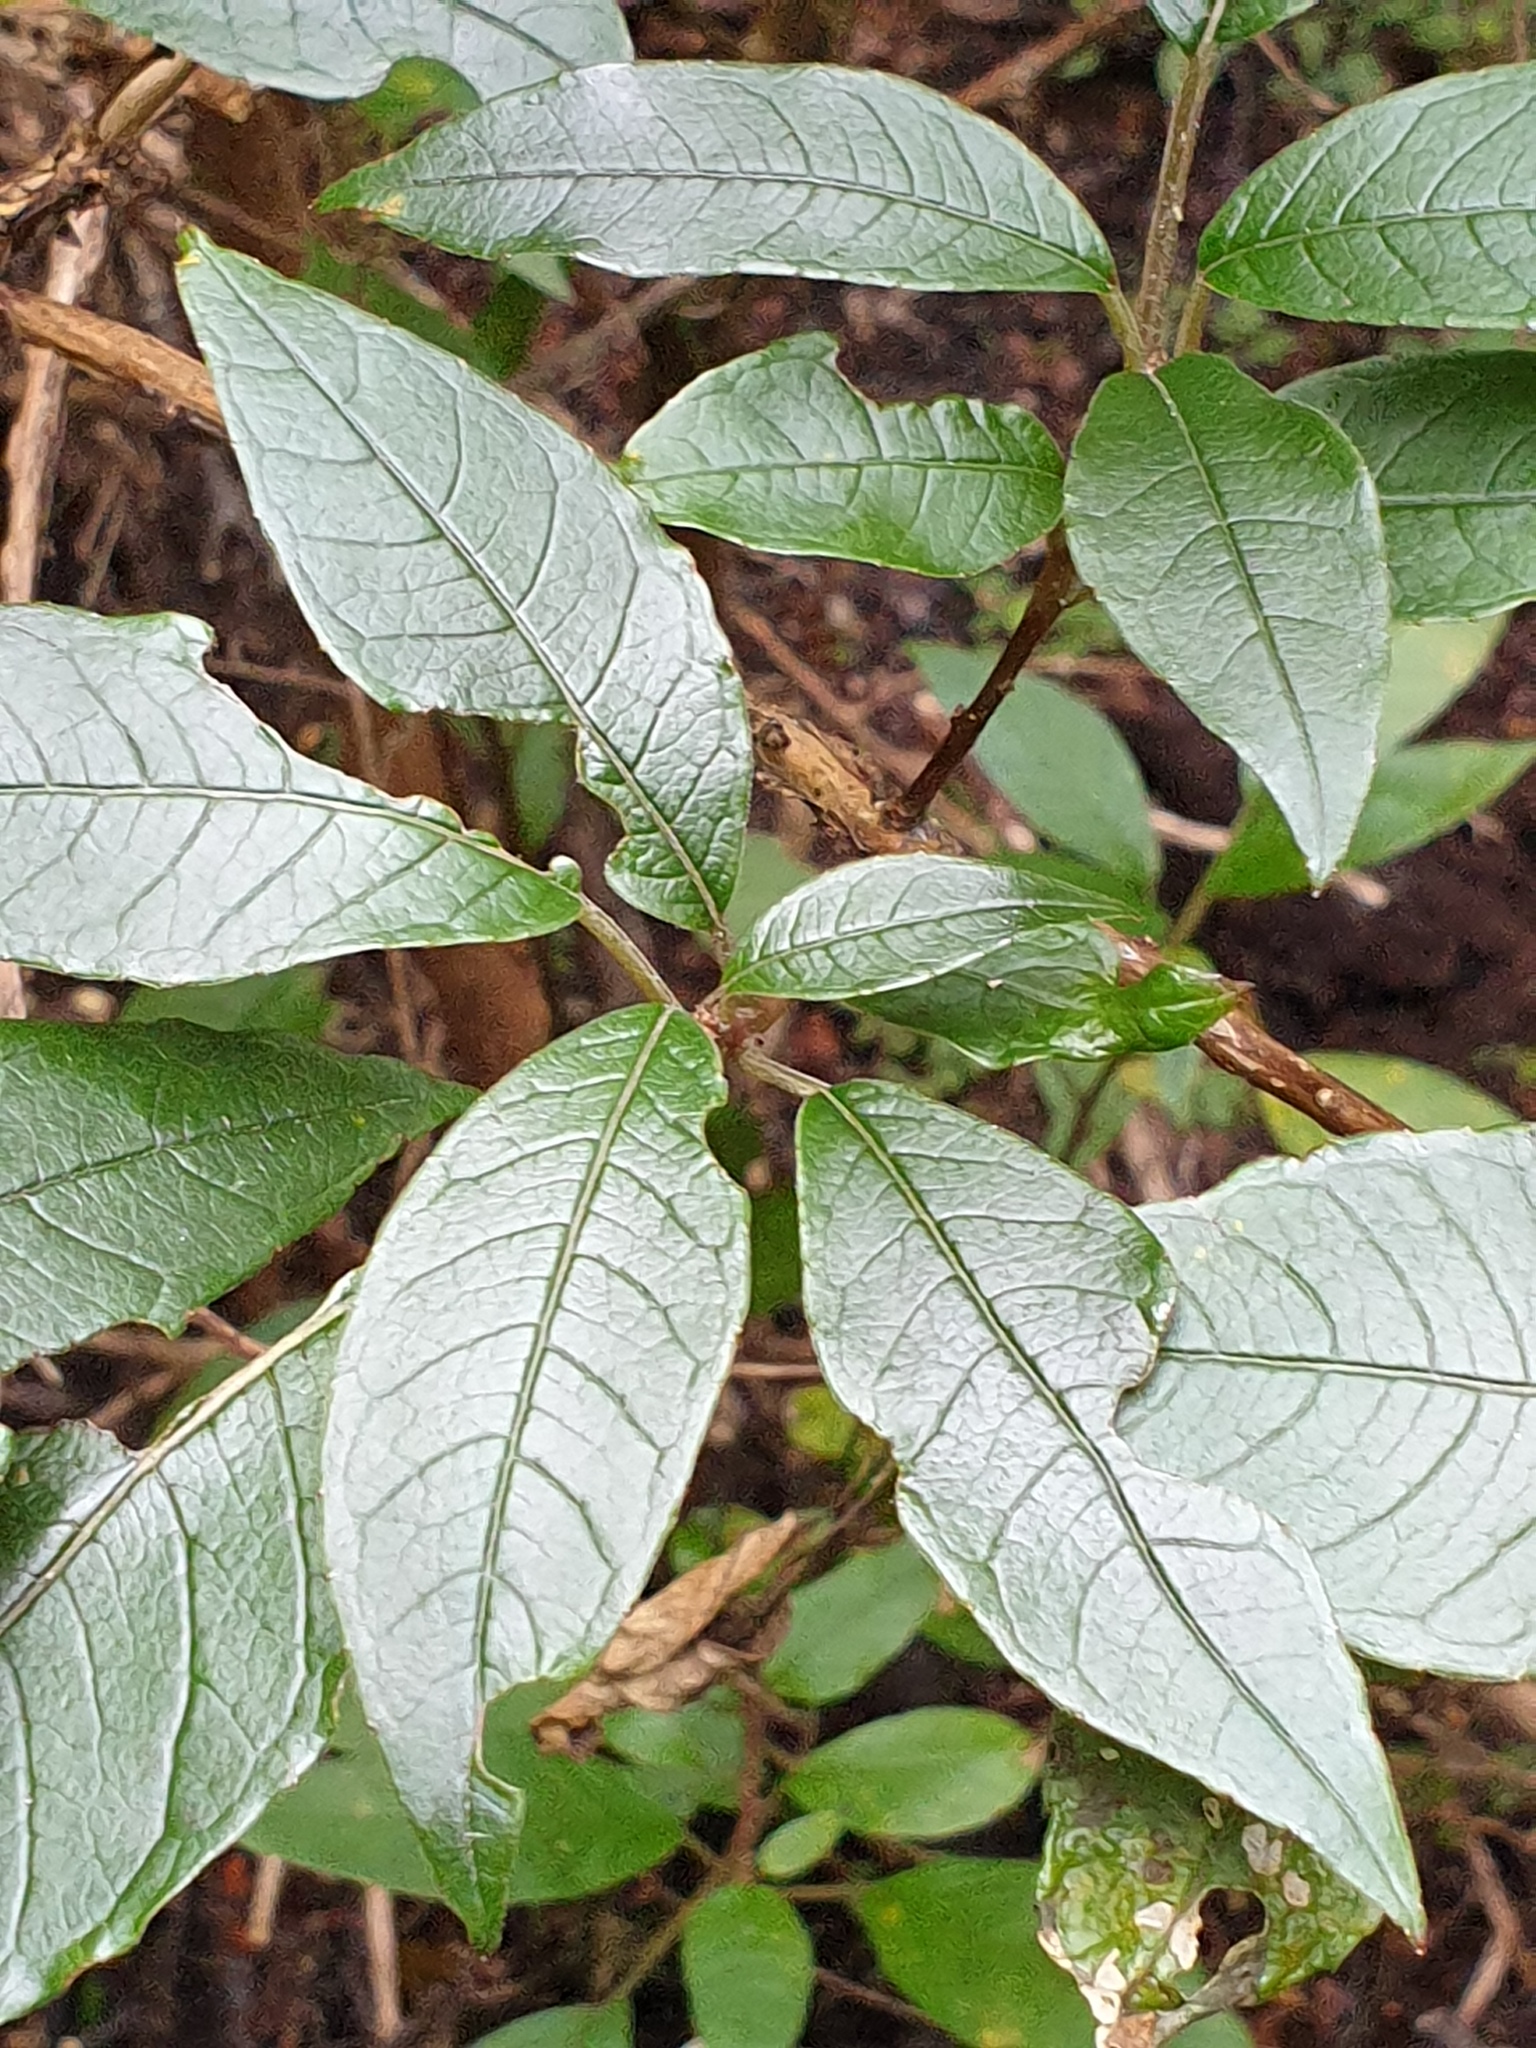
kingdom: Plantae
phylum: Tracheophyta
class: Magnoliopsida
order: Myrtales
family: Onagraceae
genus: Fuchsia
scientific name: Fuchsia excorticata
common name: Tree fuchsia
